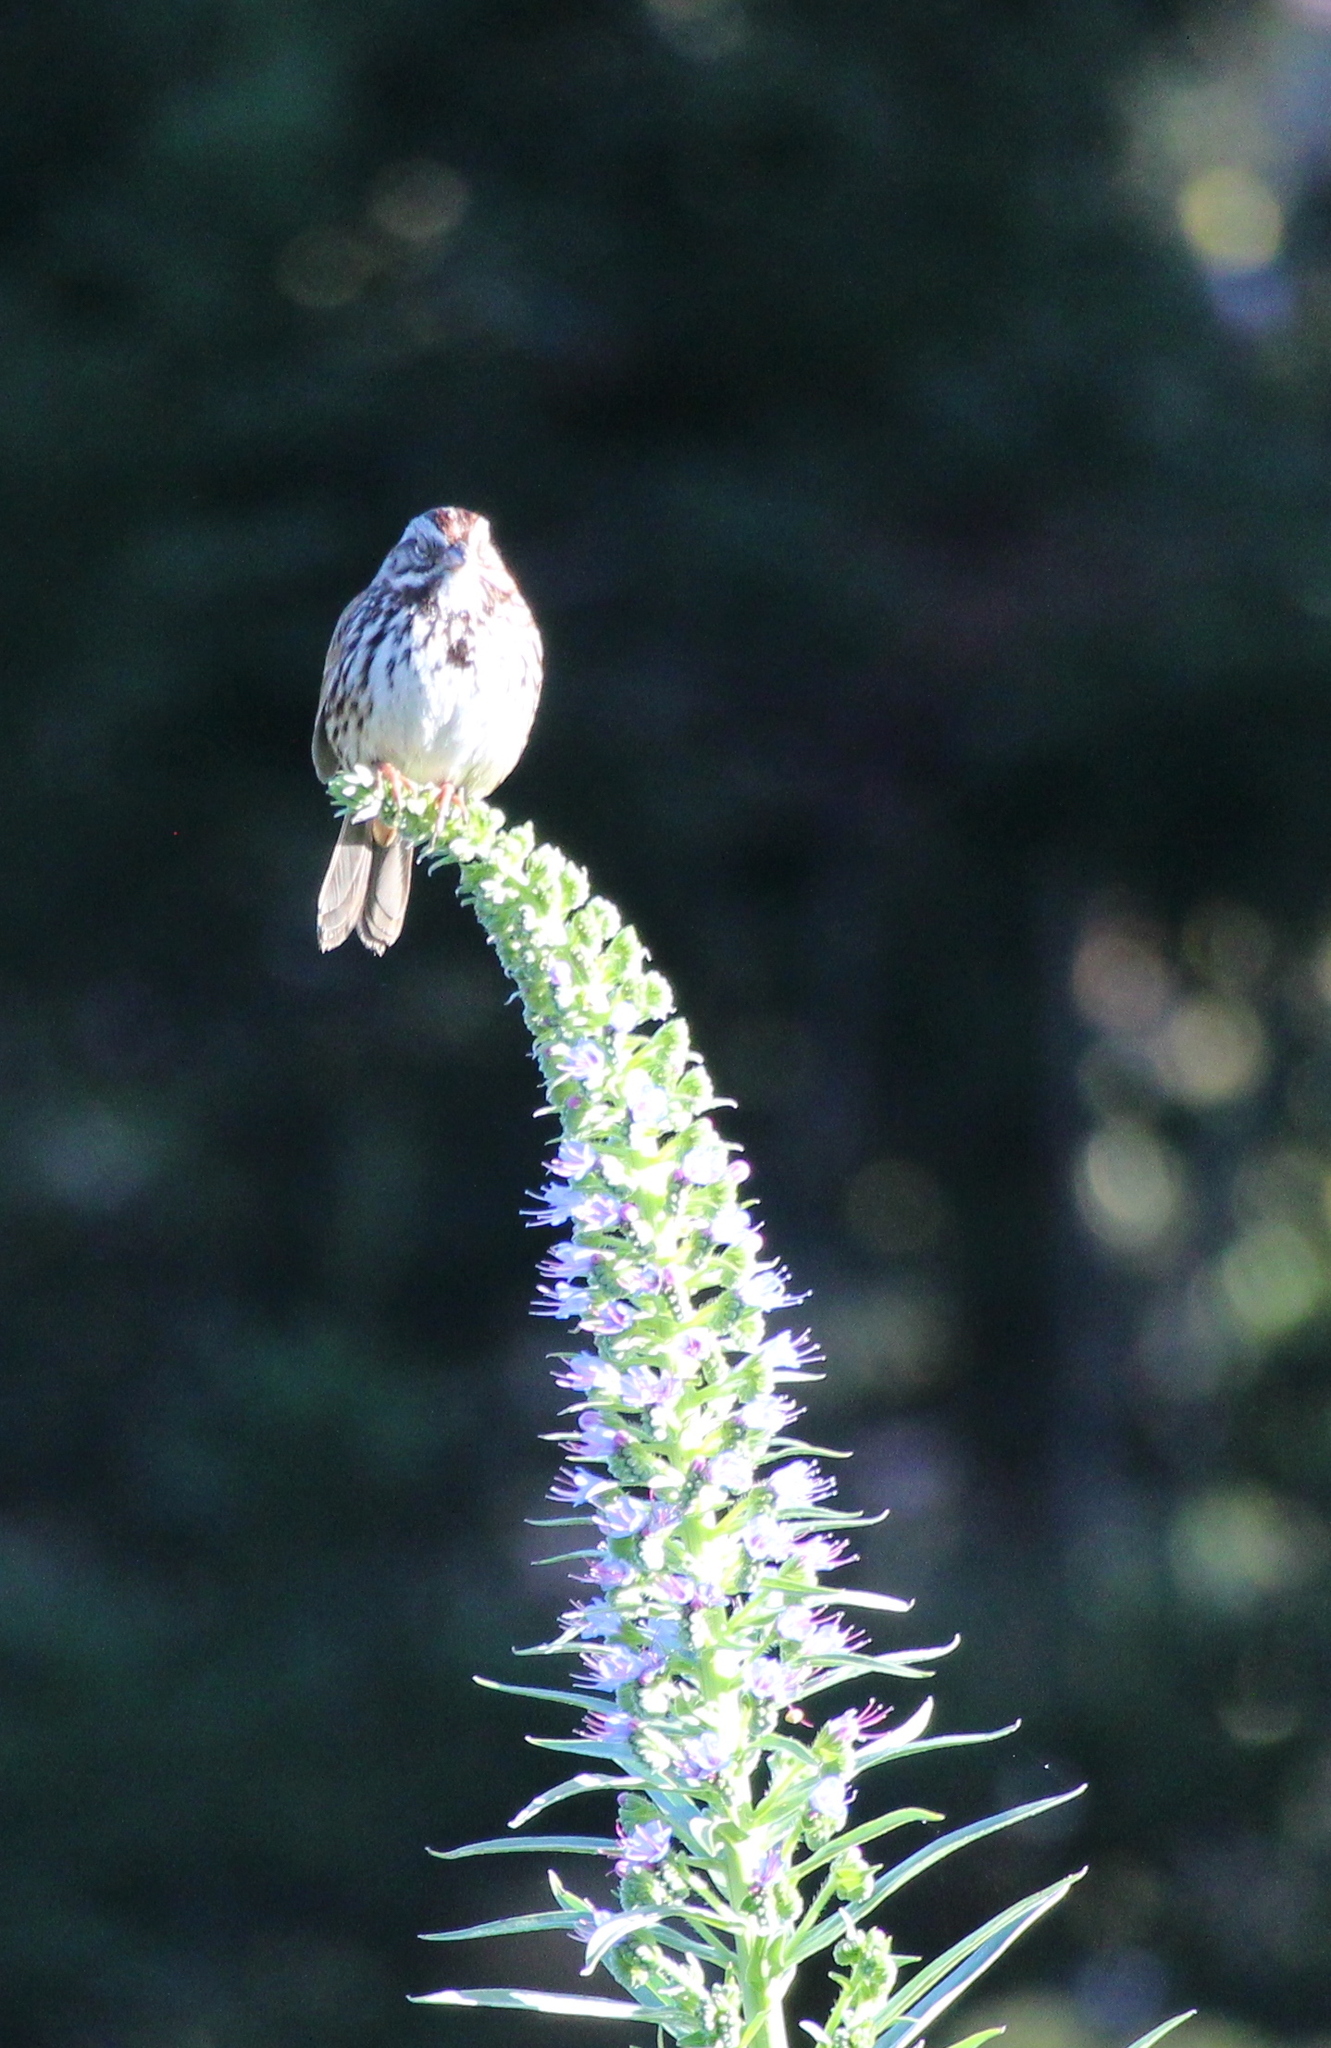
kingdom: Animalia
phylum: Chordata
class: Aves
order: Passeriformes
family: Passerellidae
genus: Melospiza
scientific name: Melospiza melodia
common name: Song sparrow
